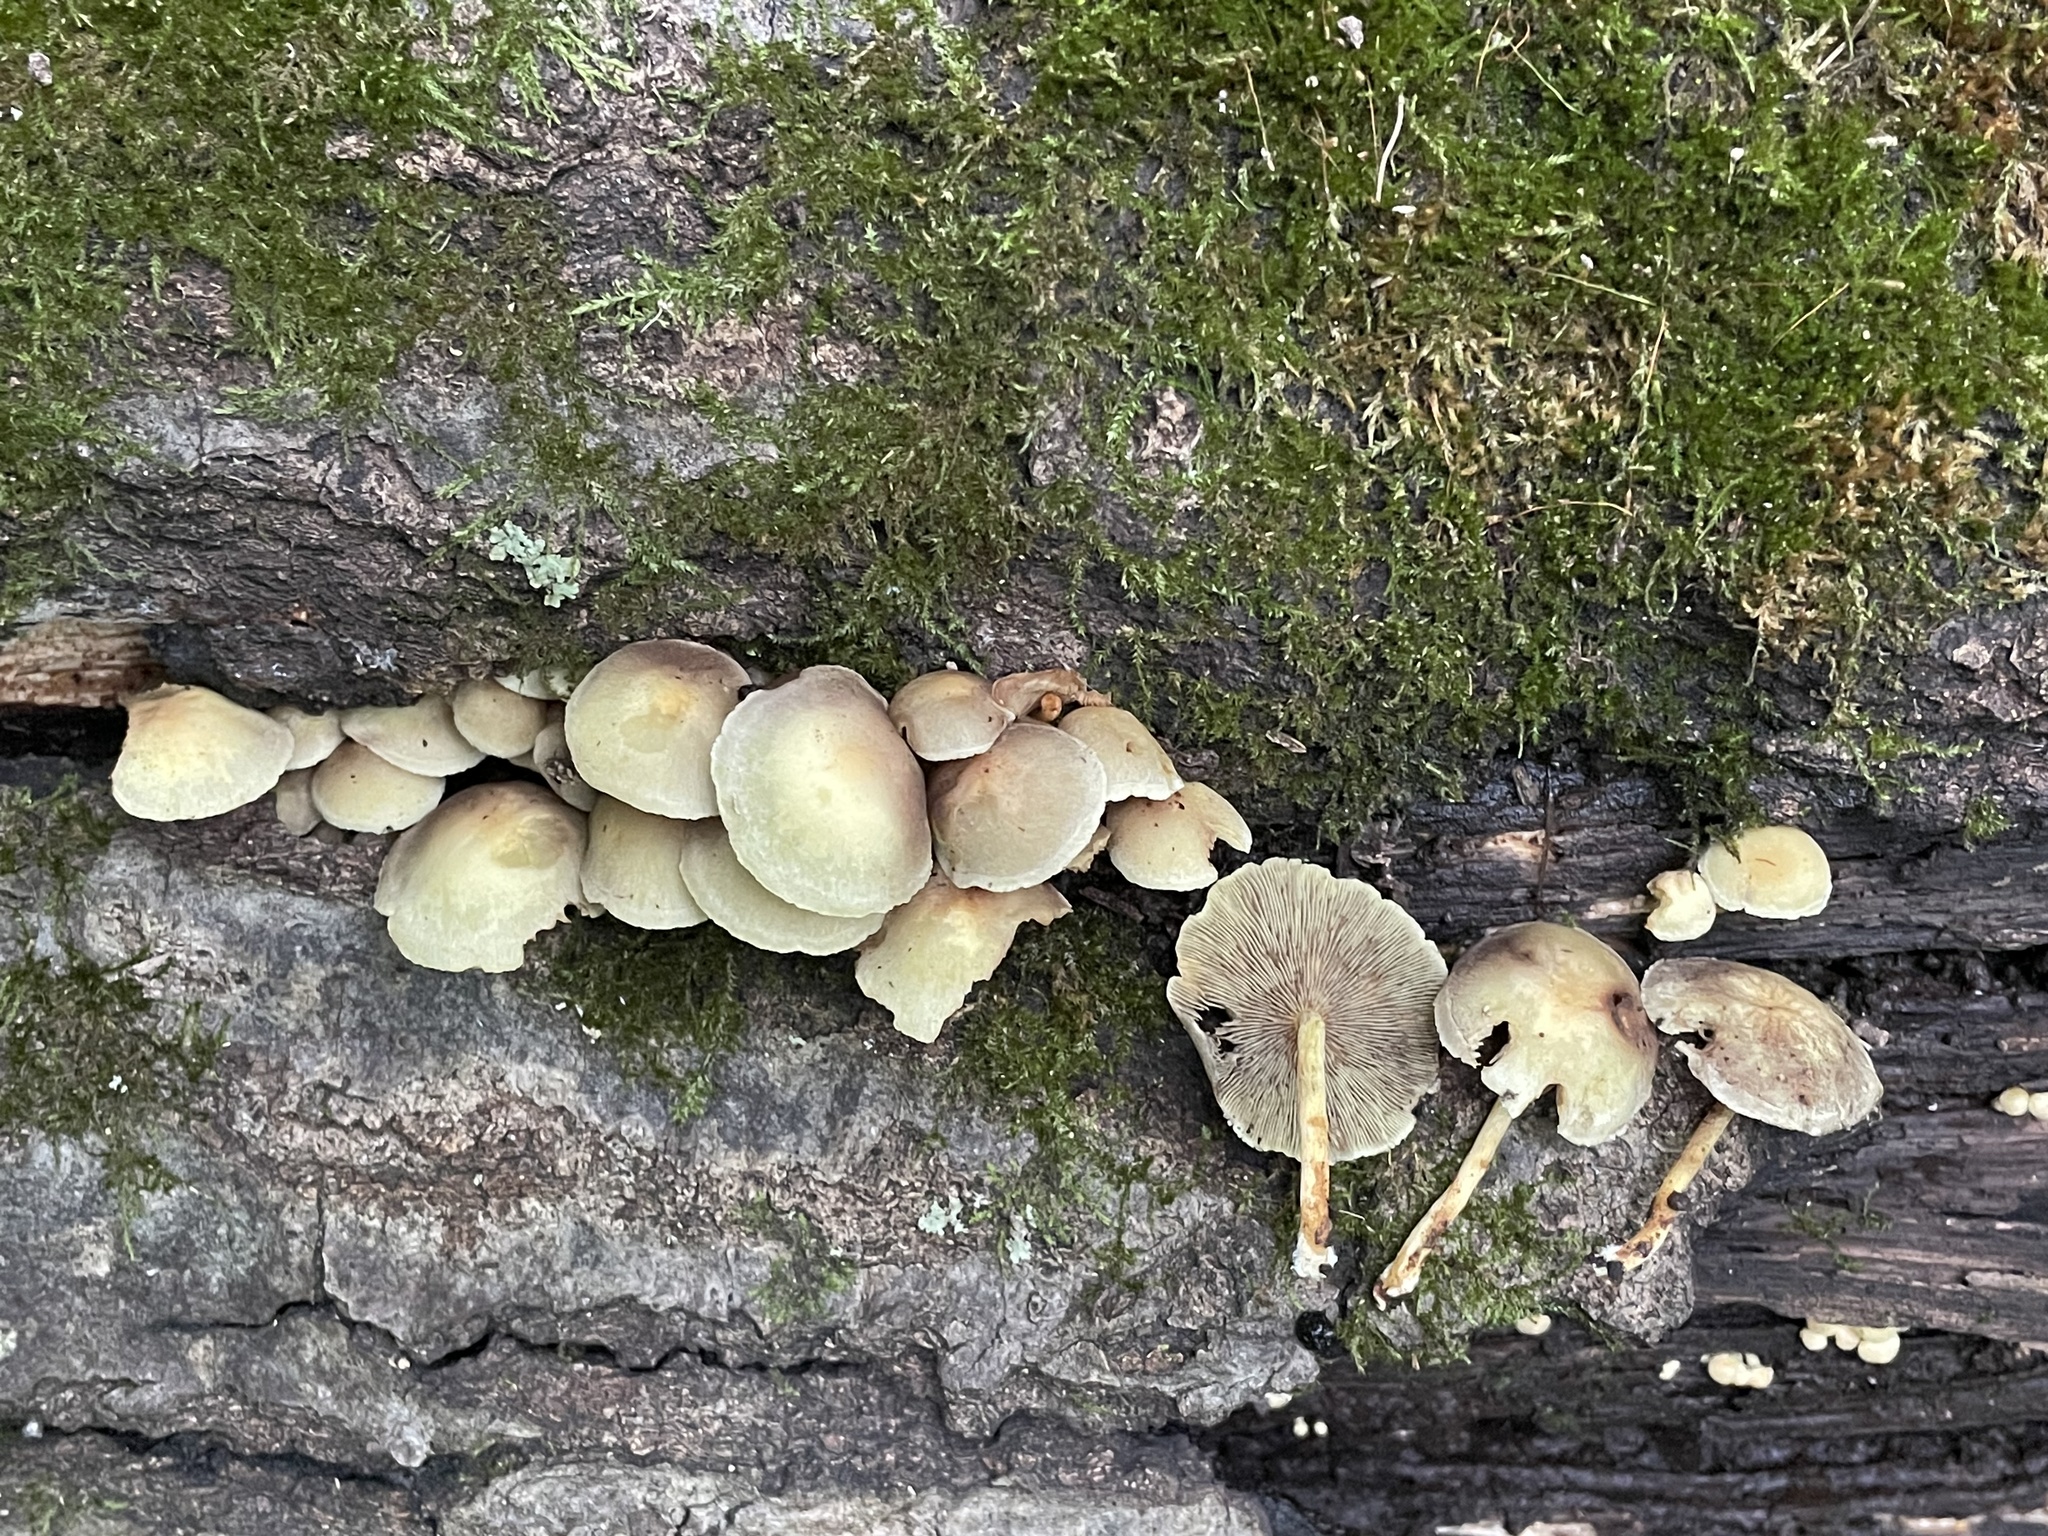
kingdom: Fungi
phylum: Basidiomycota
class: Agaricomycetes
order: Agaricales
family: Strophariaceae
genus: Hypholoma
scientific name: Hypholoma fasciculare
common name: Sulphur tuft
